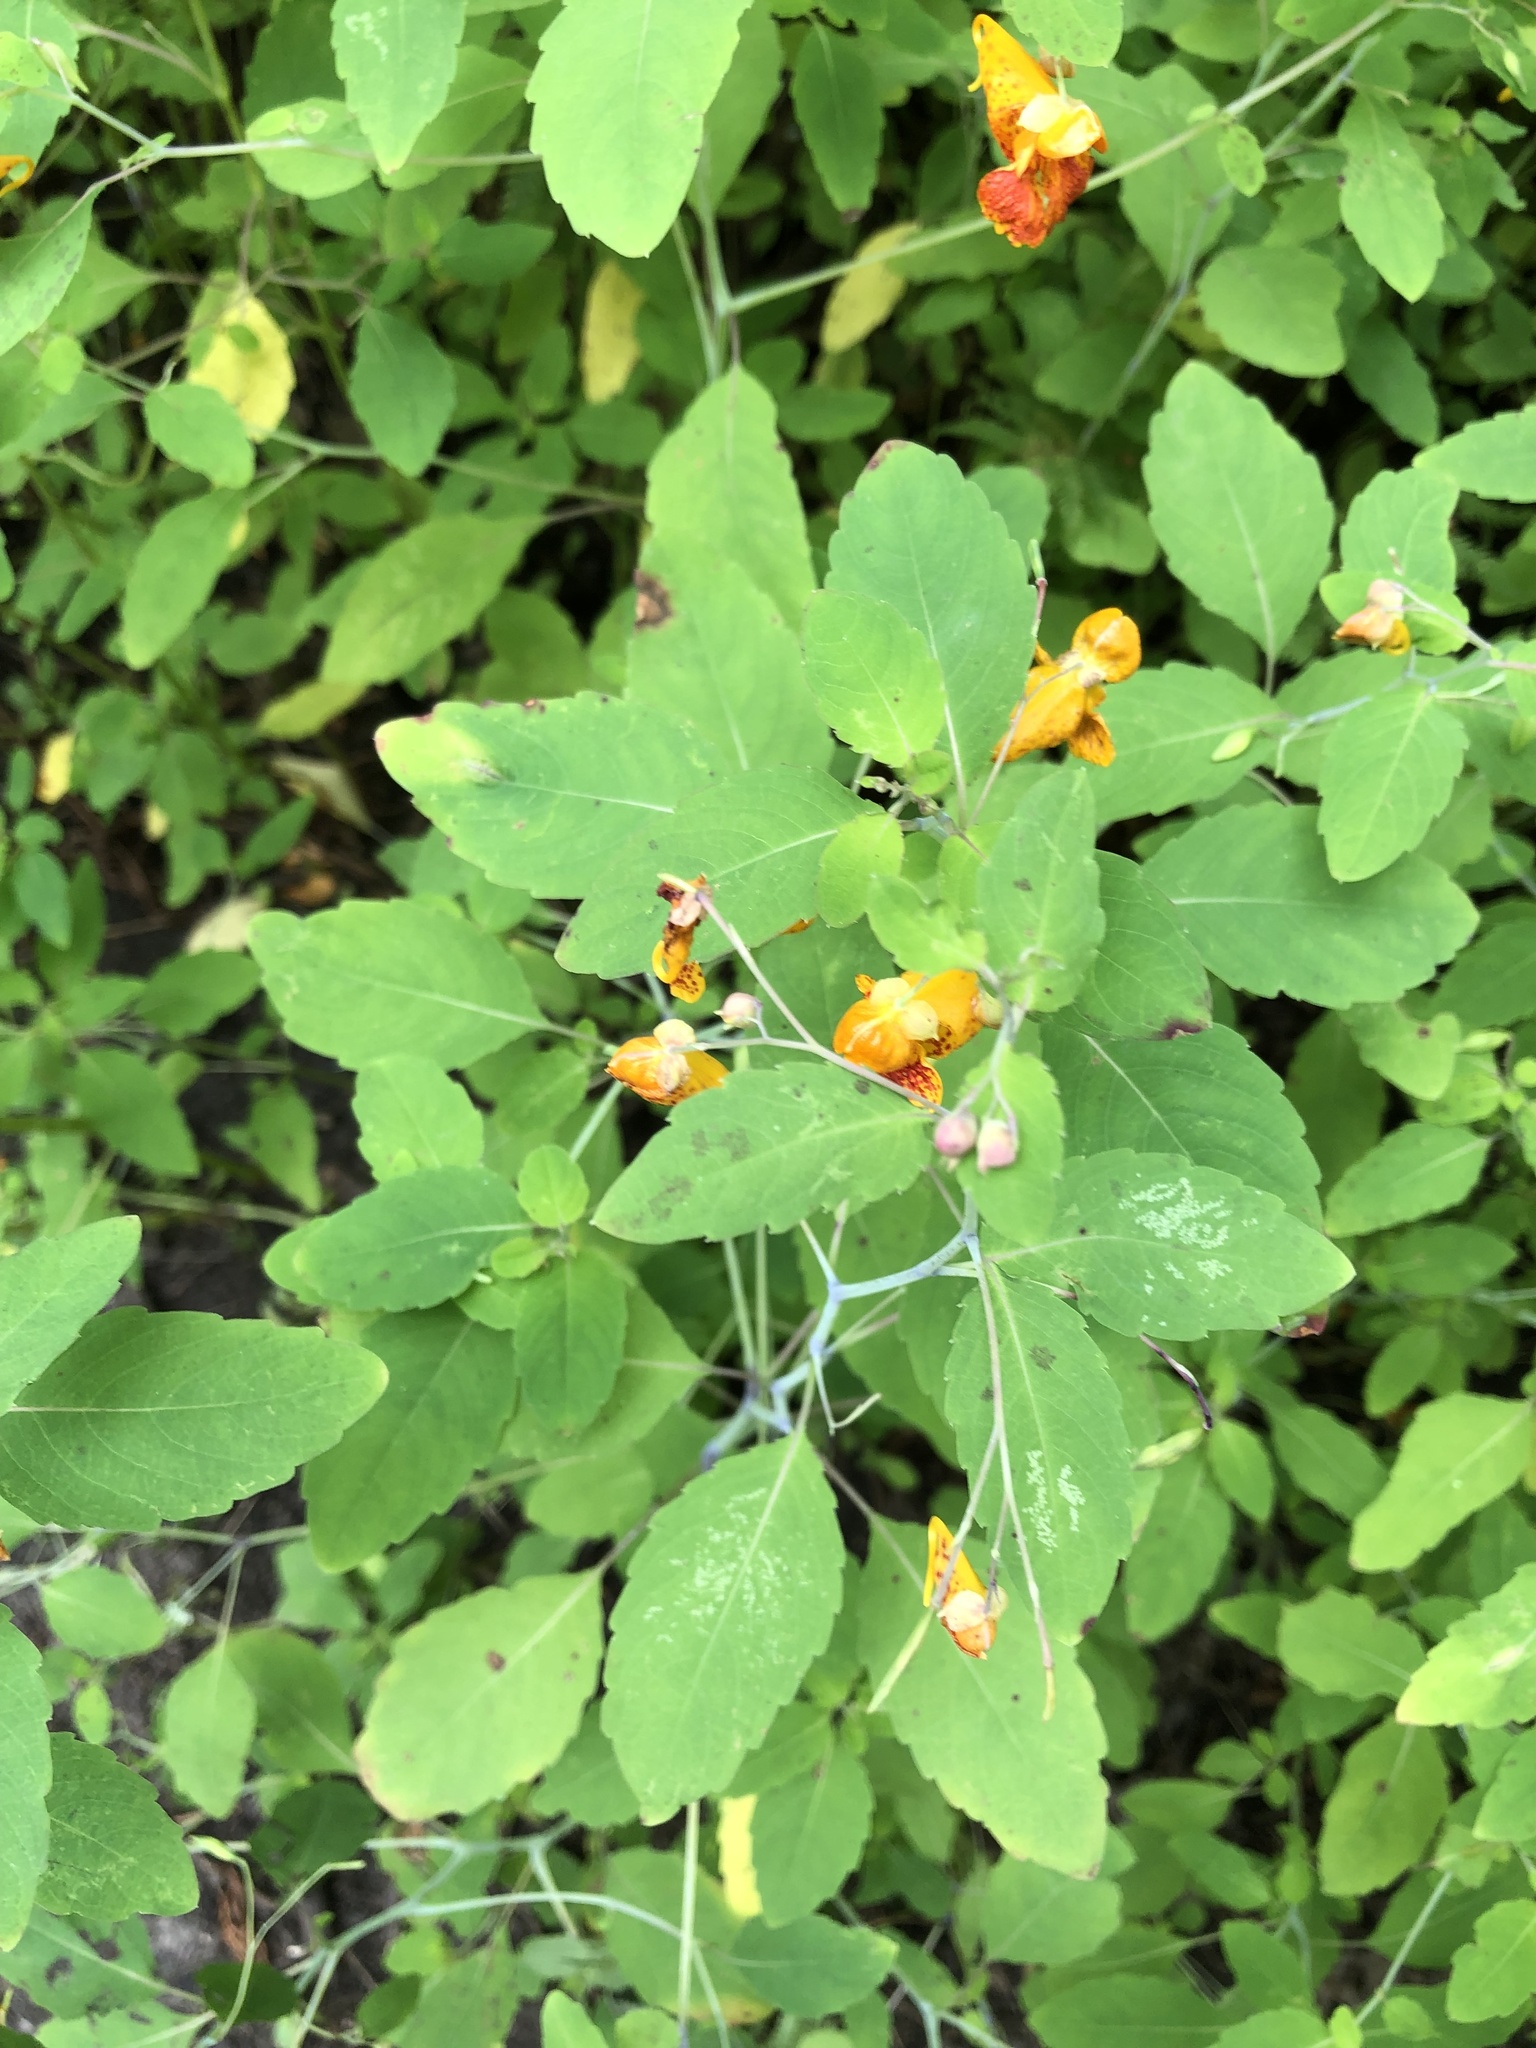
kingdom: Plantae
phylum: Tracheophyta
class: Magnoliopsida
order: Ericales
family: Balsaminaceae
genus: Impatiens
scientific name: Impatiens capensis
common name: Orange balsam
